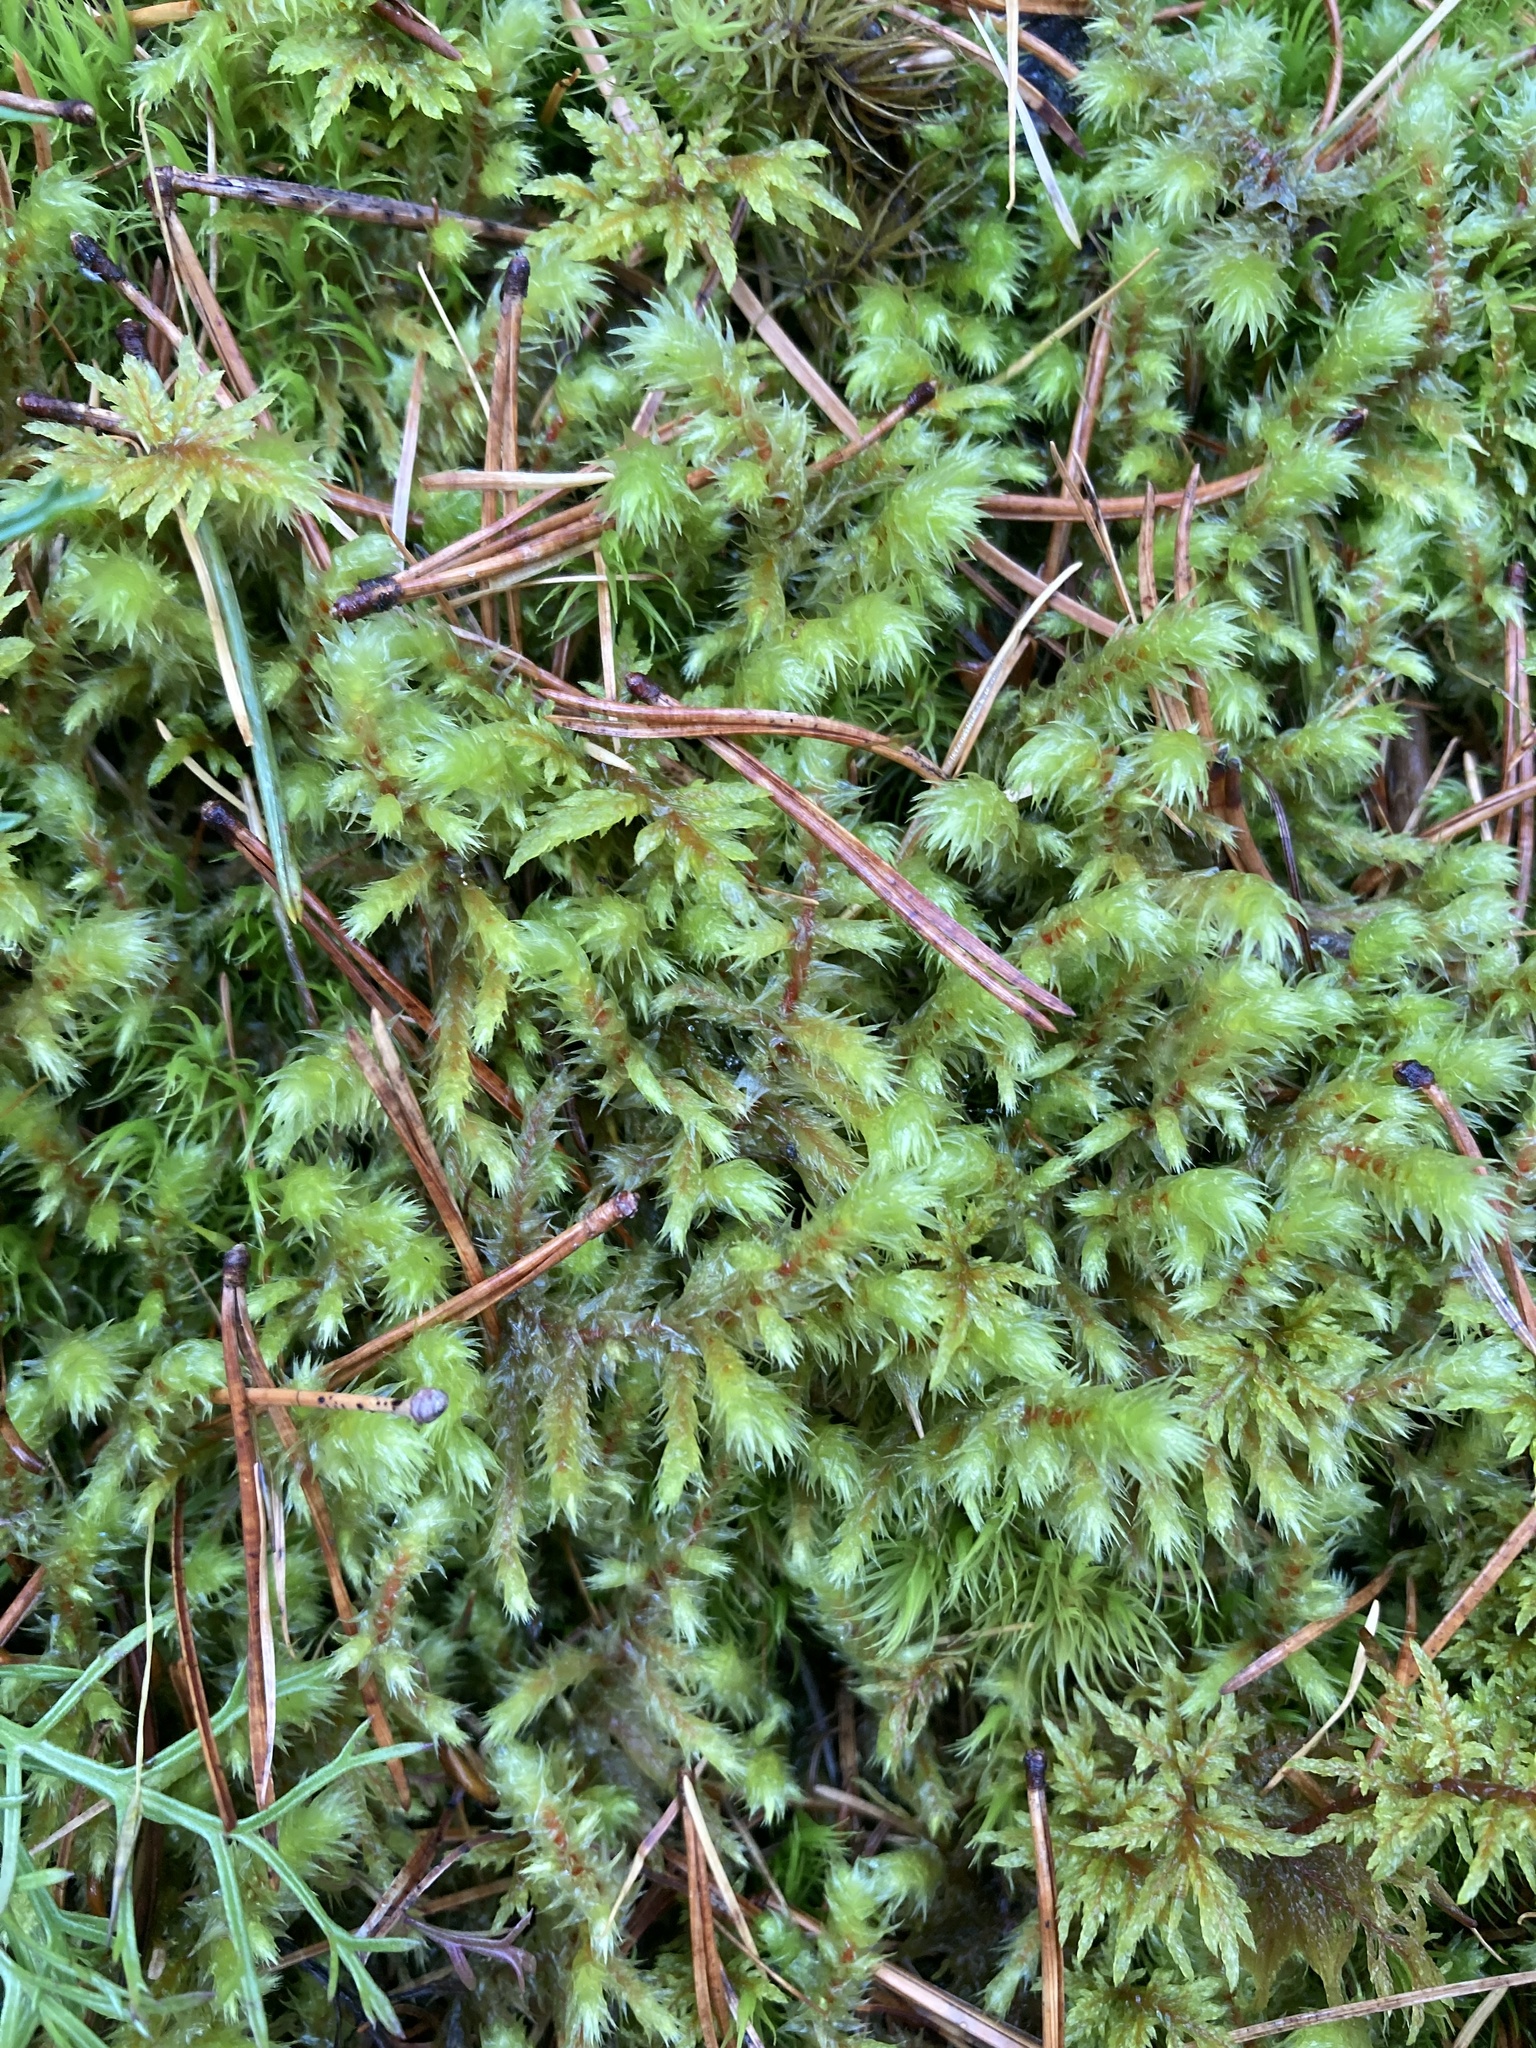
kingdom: Plantae
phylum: Bryophyta
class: Bryopsida
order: Hypnales
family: Hylocomiaceae
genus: Hylocomiadelphus
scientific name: Hylocomiadelphus triquetrus
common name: Rough goose neck moss
